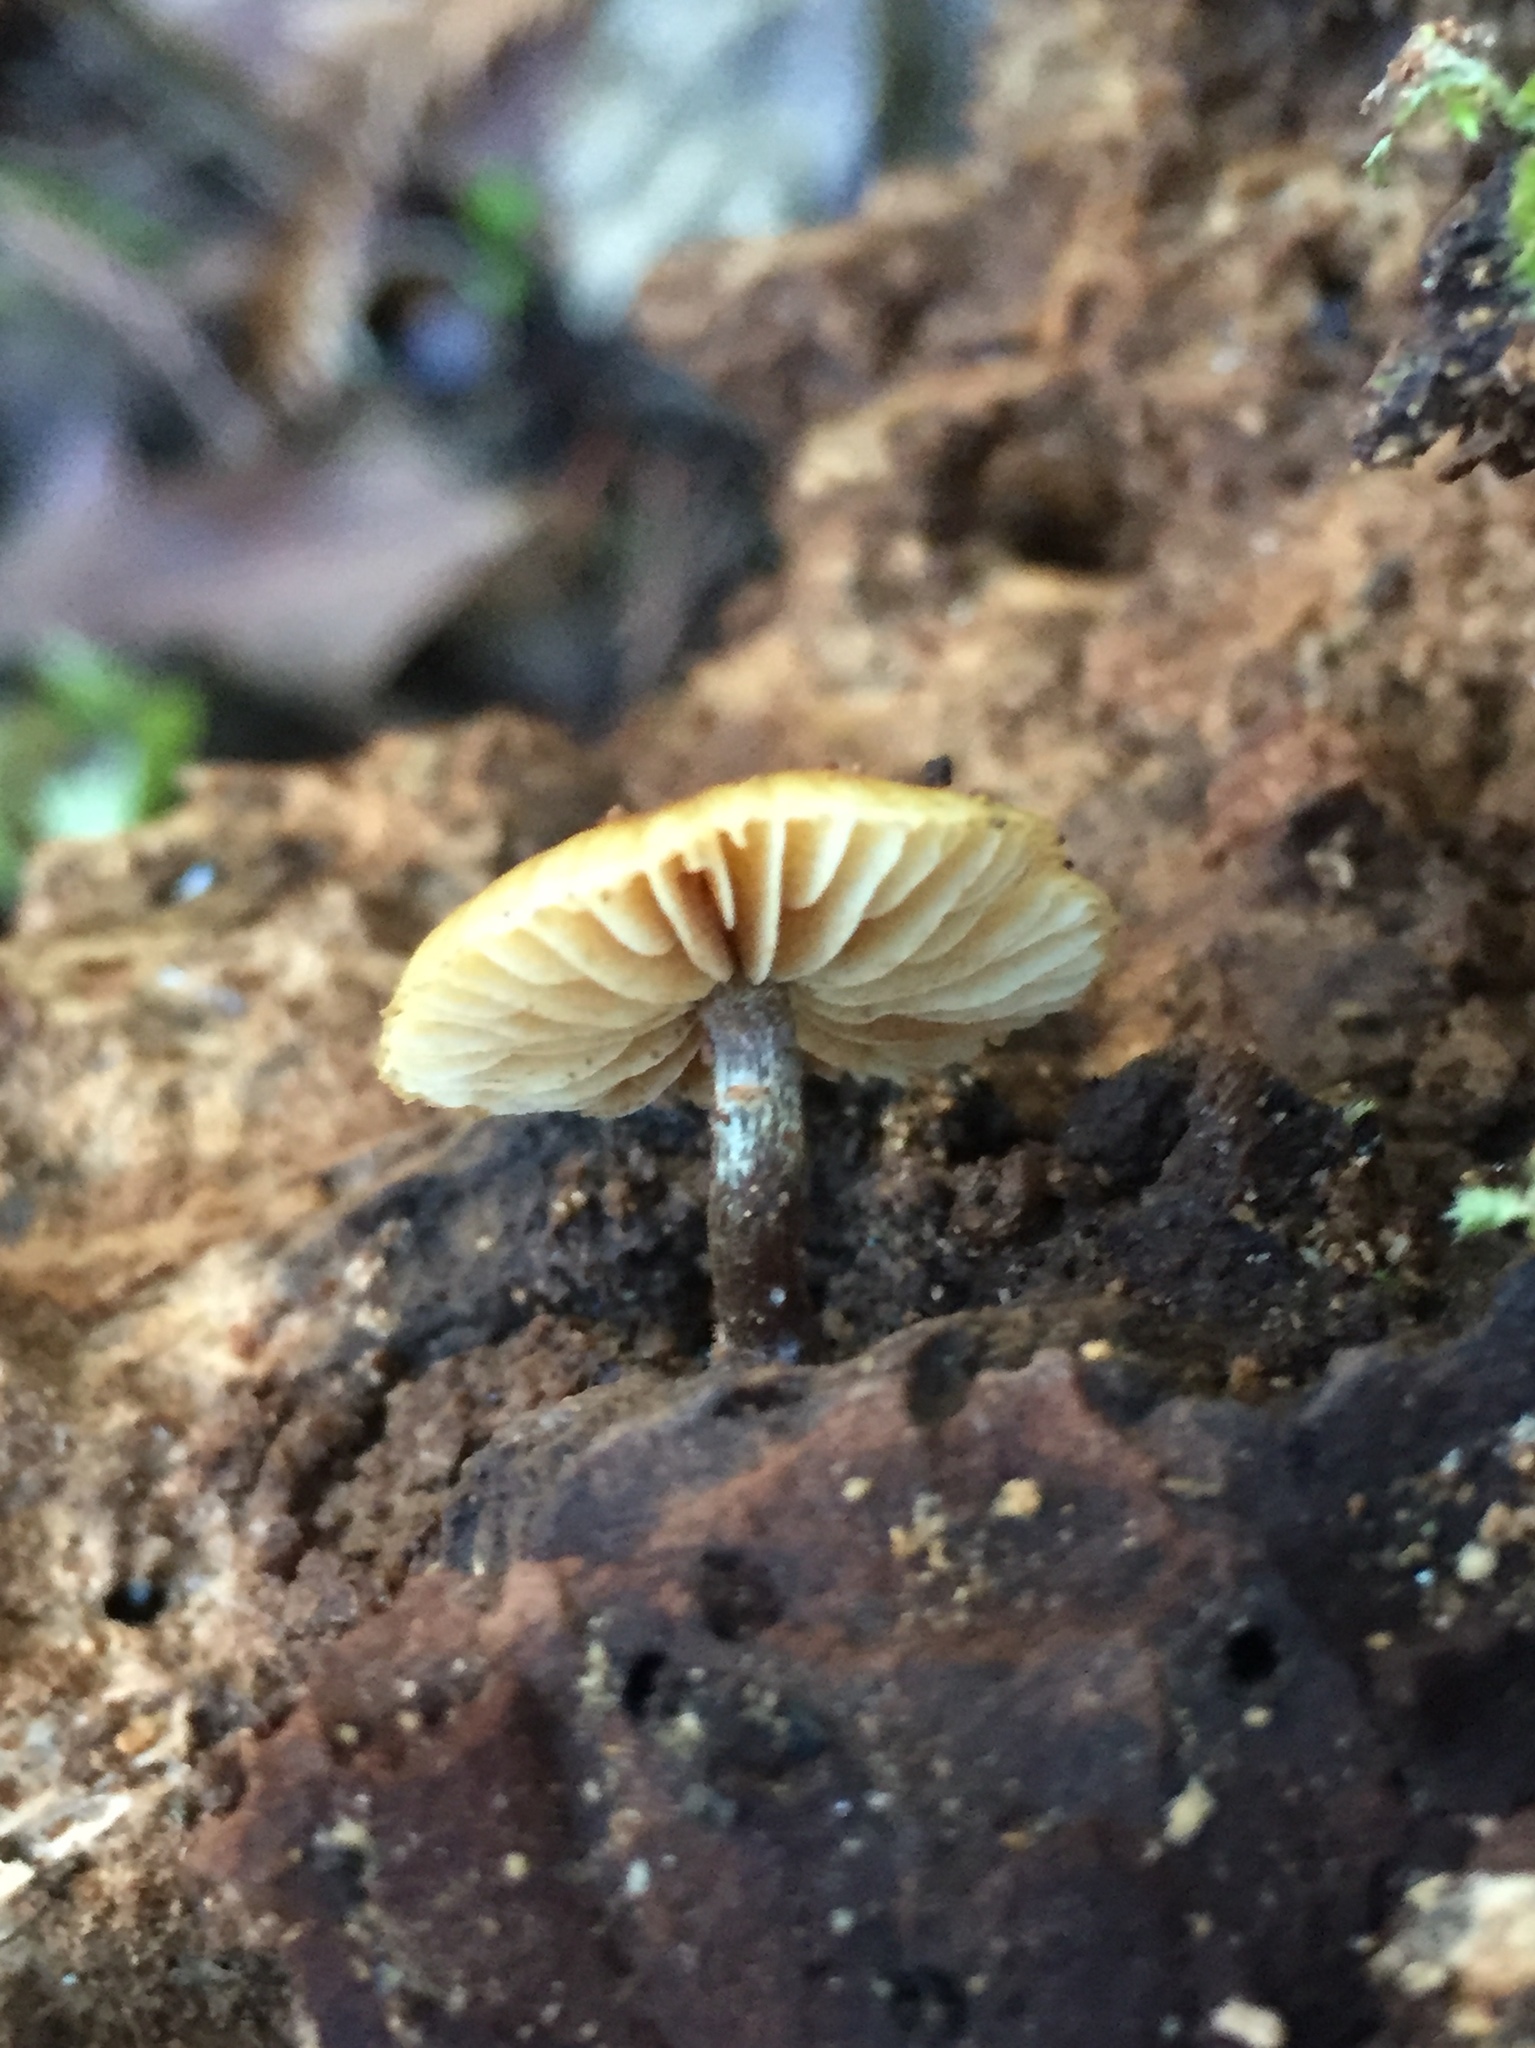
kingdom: Fungi
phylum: Basidiomycota
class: Agaricomycetes
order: Agaricales
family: Hymenogastraceae
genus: Galerina
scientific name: Galerina marginata
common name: Funeral bell
